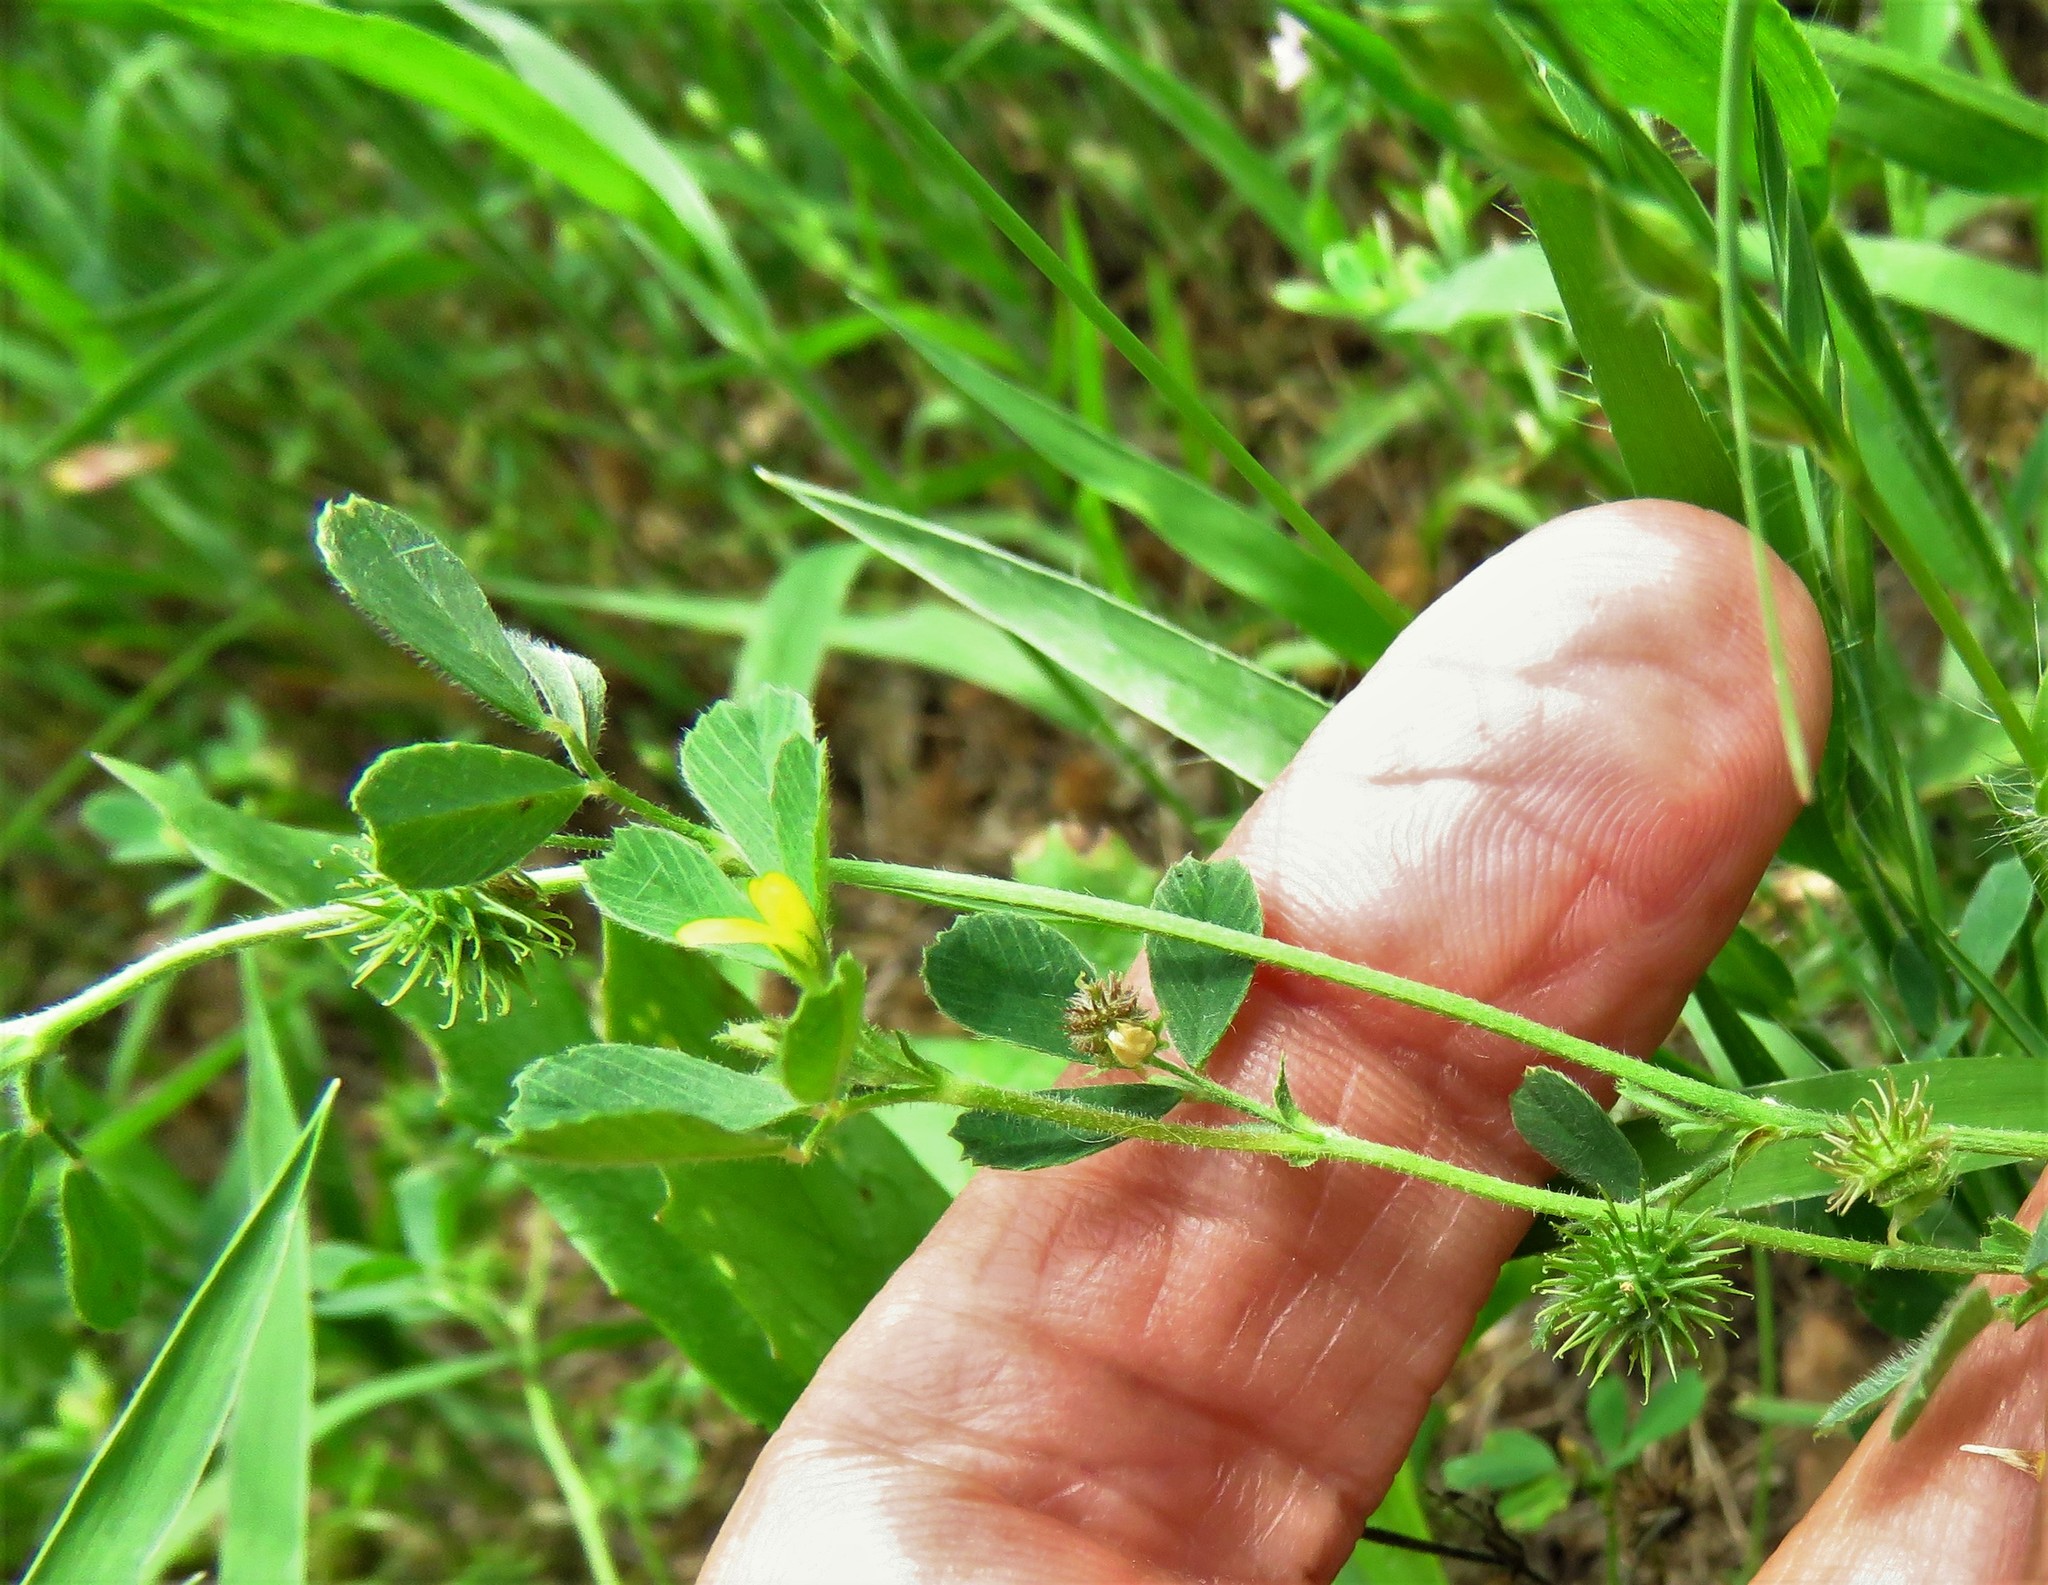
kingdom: Plantae
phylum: Tracheophyta
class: Magnoliopsida
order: Fabales
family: Fabaceae
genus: Medicago
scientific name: Medicago minima
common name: Little bur-clover
